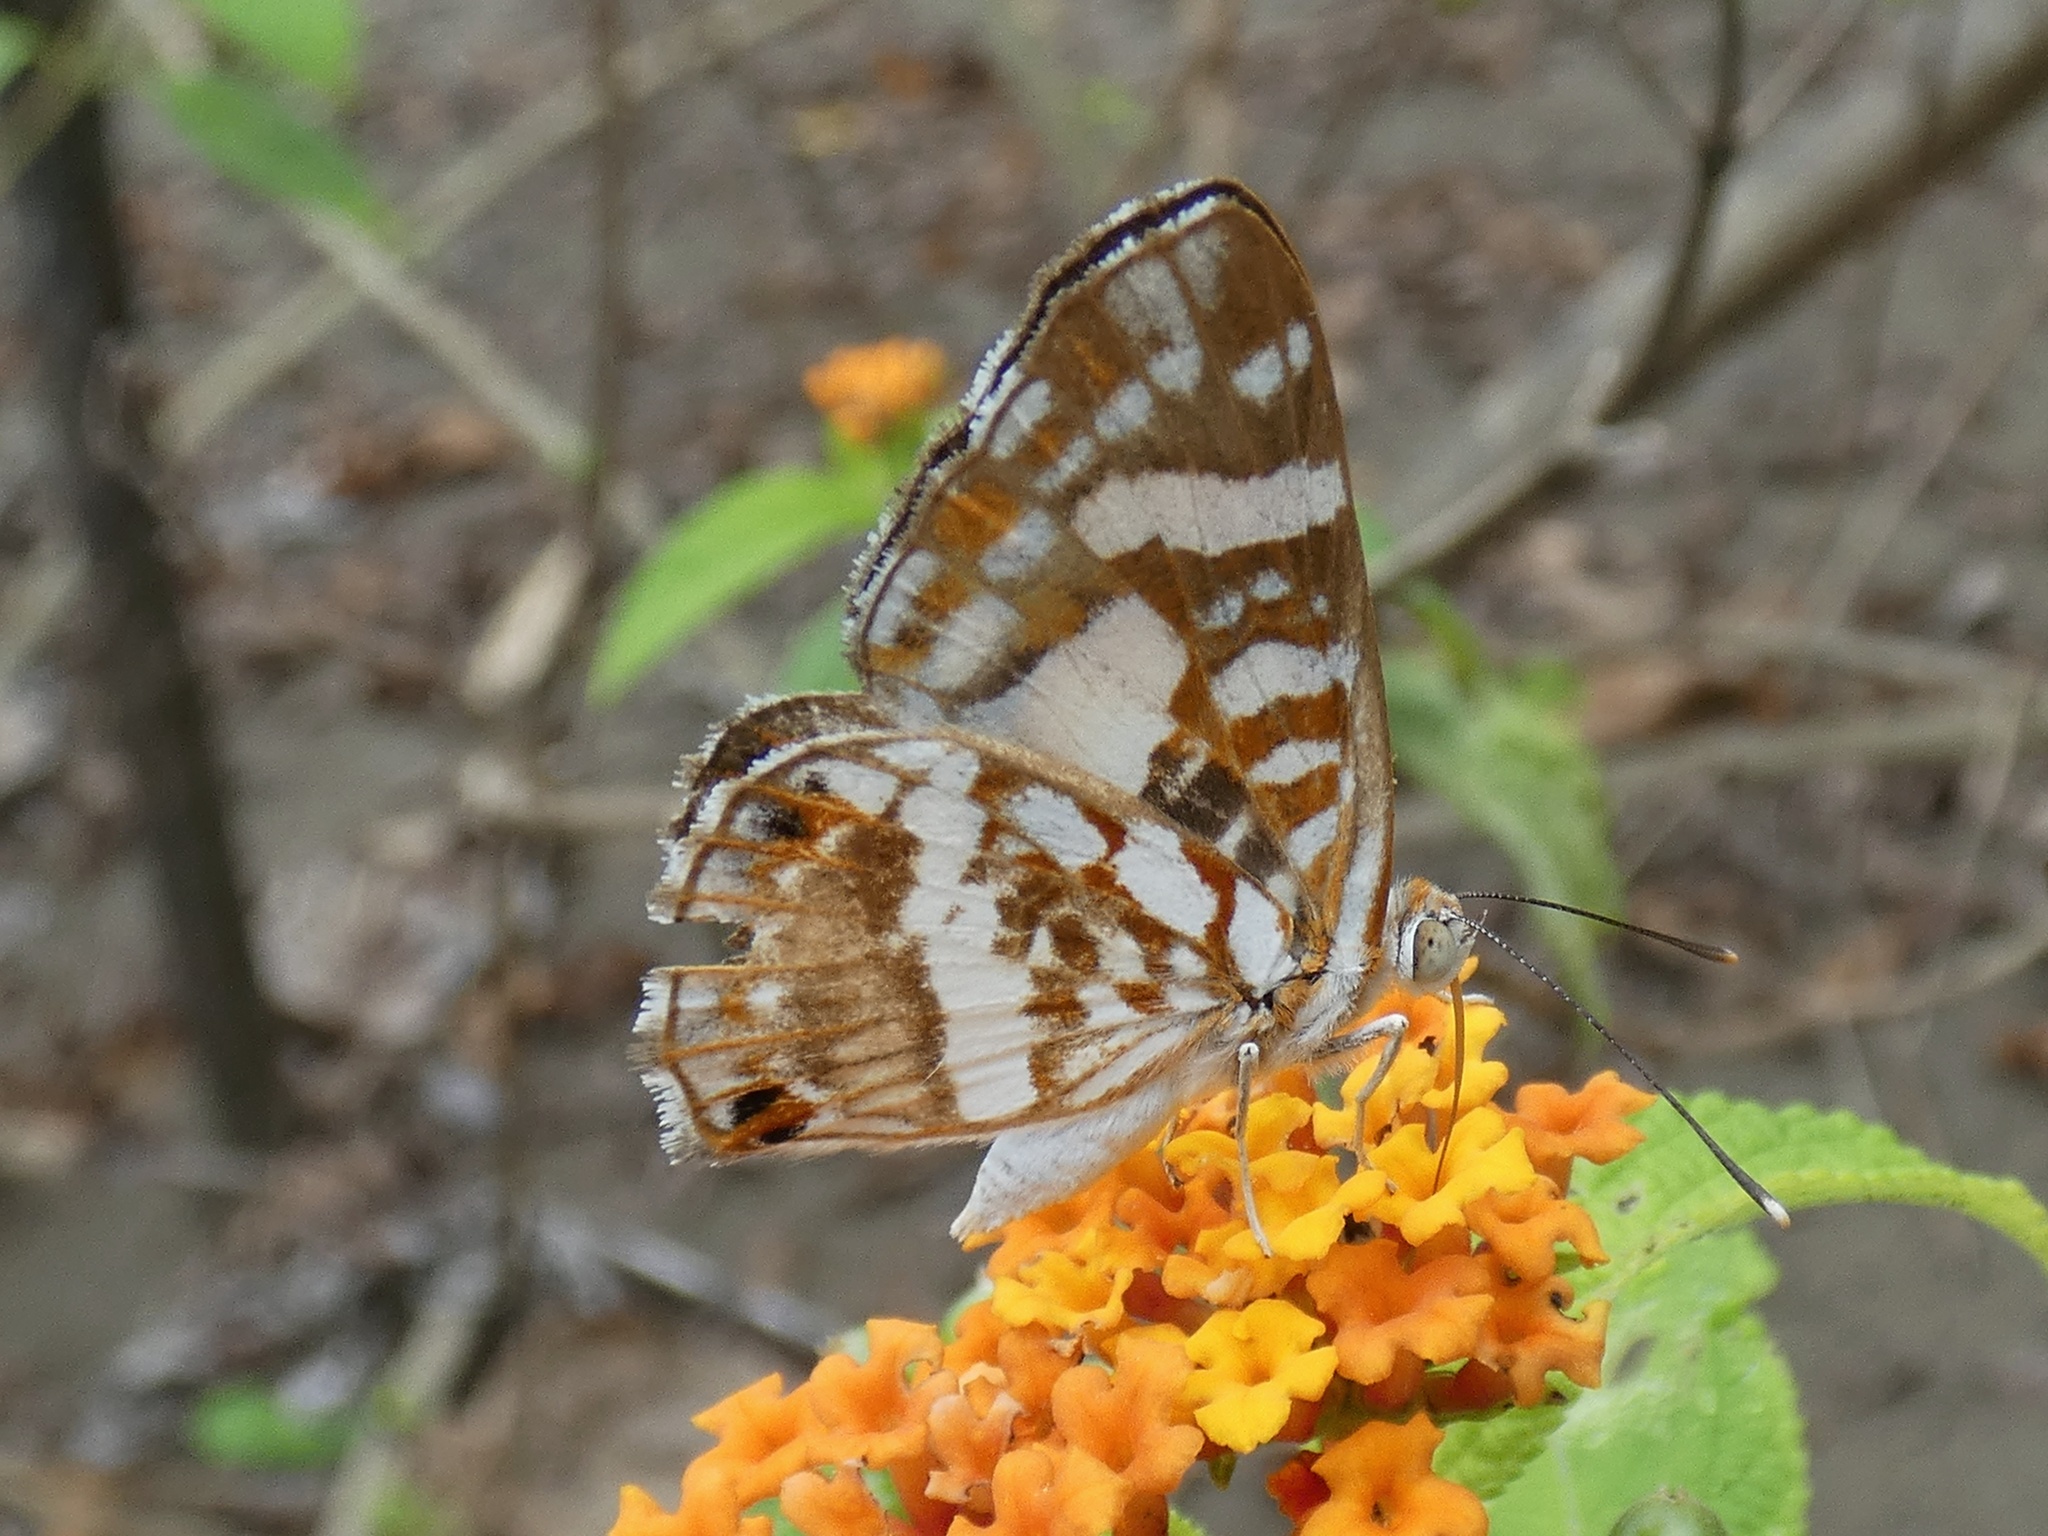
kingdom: Animalia
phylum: Arthropoda
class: Insecta
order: Lepidoptera
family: Riodinidae
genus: Ariconias
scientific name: Ariconias
